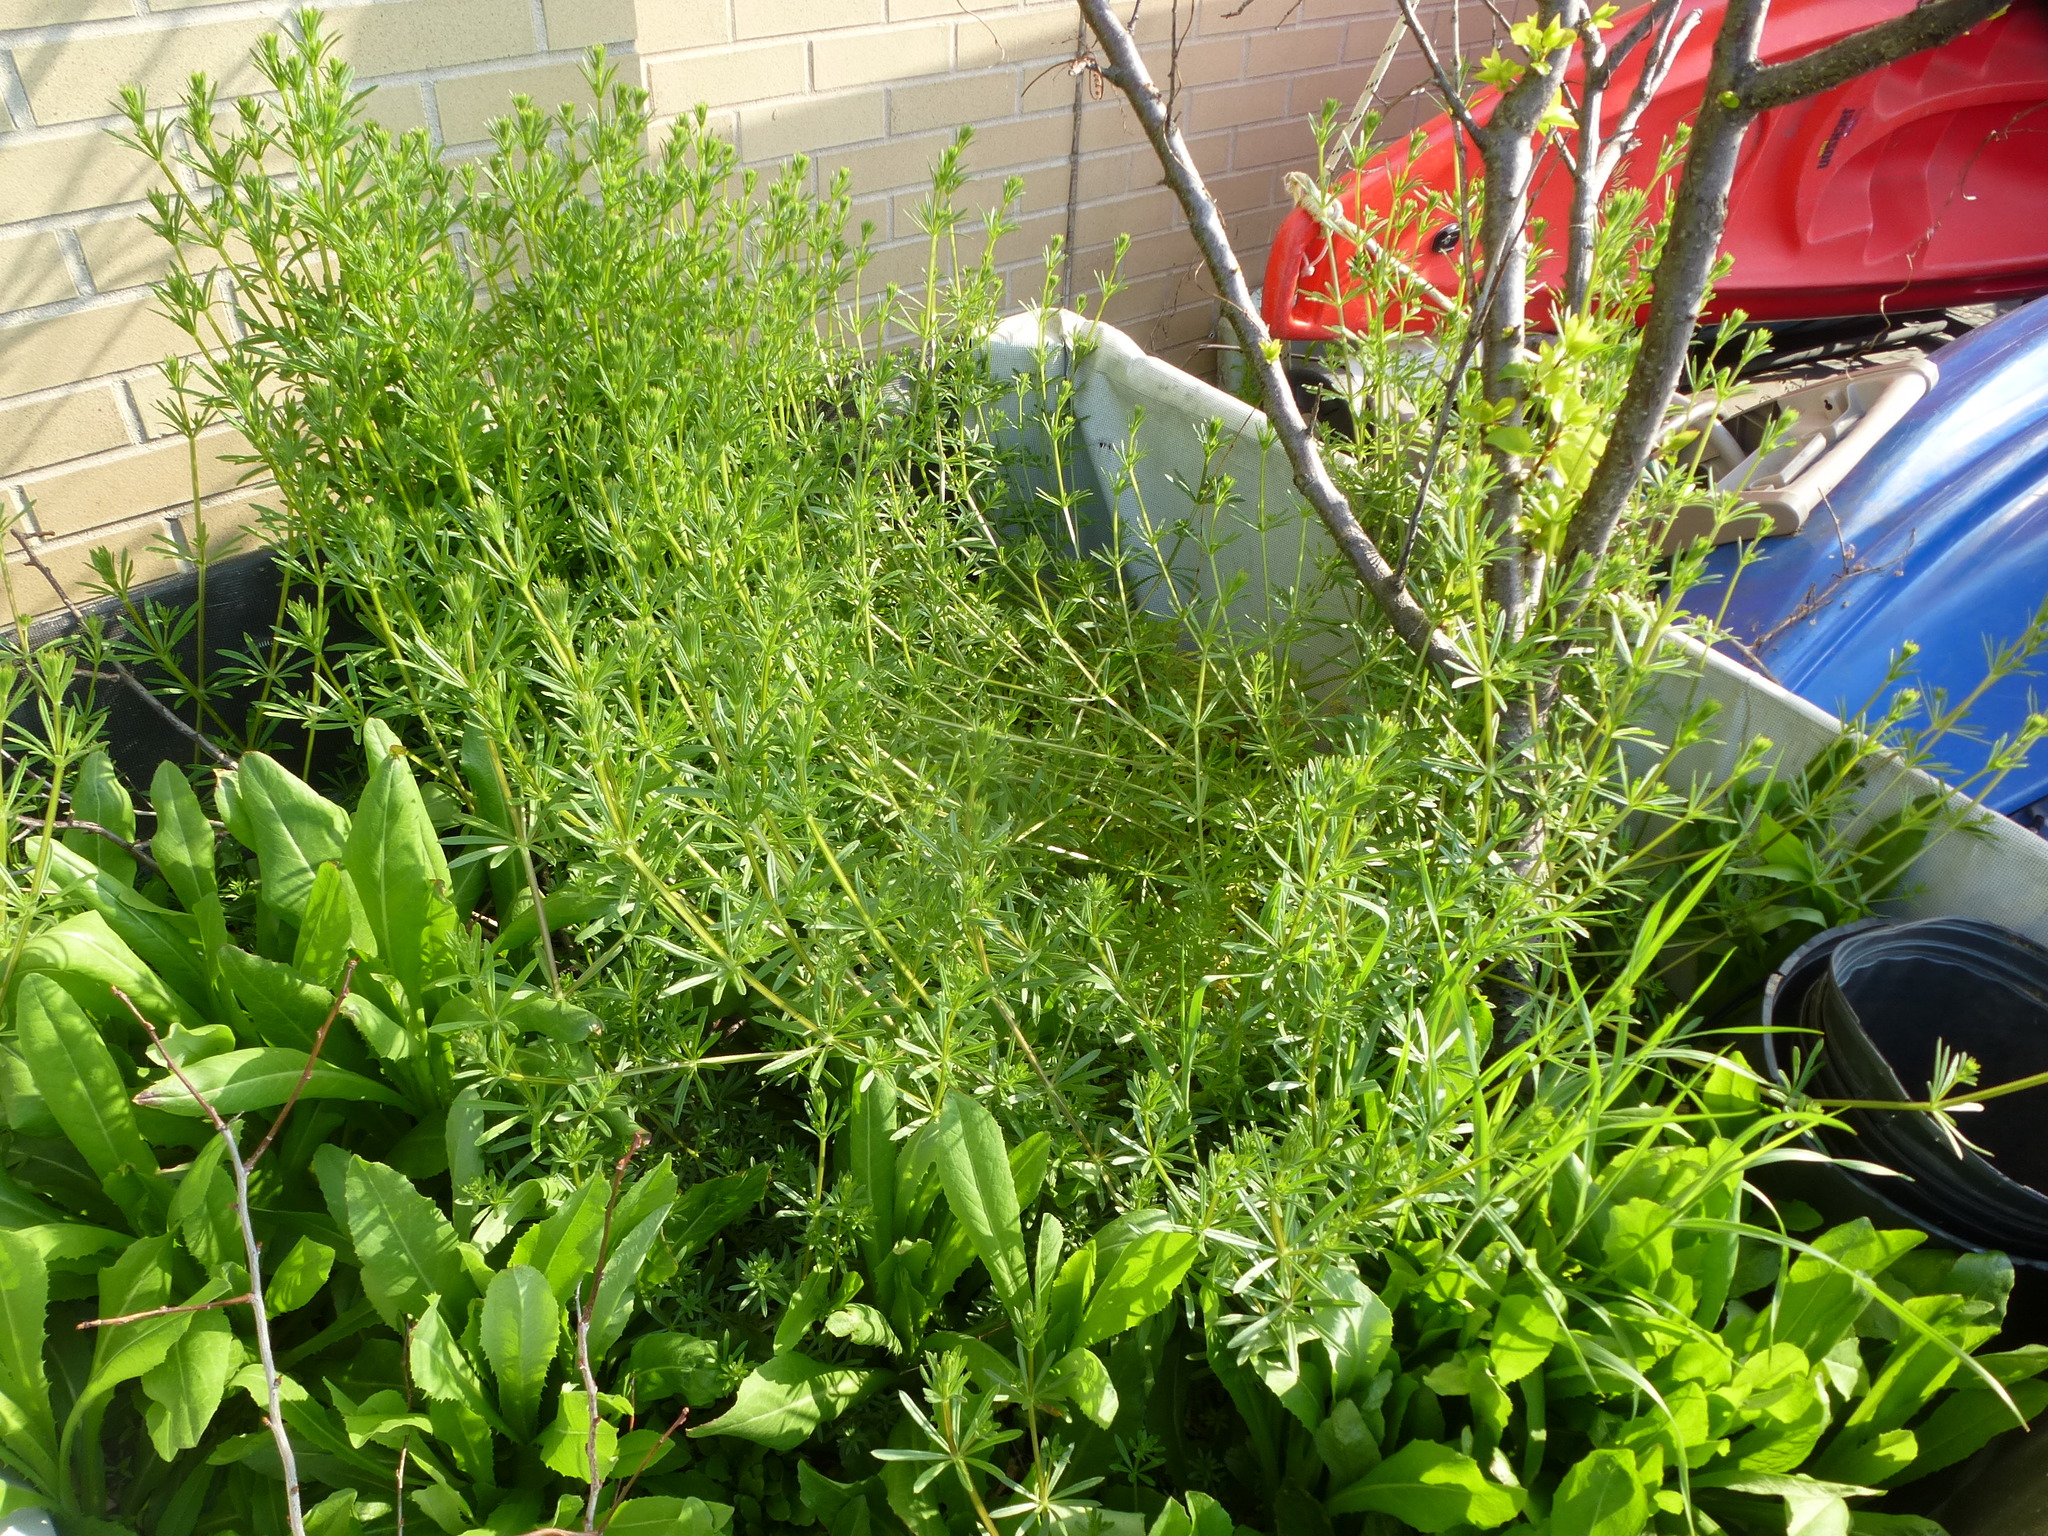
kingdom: Plantae
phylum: Tracheophyta
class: Magnoliopsida
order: Gentianales
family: Rubiaceae
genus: Galium
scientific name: Galium aparine
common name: Cleavers
